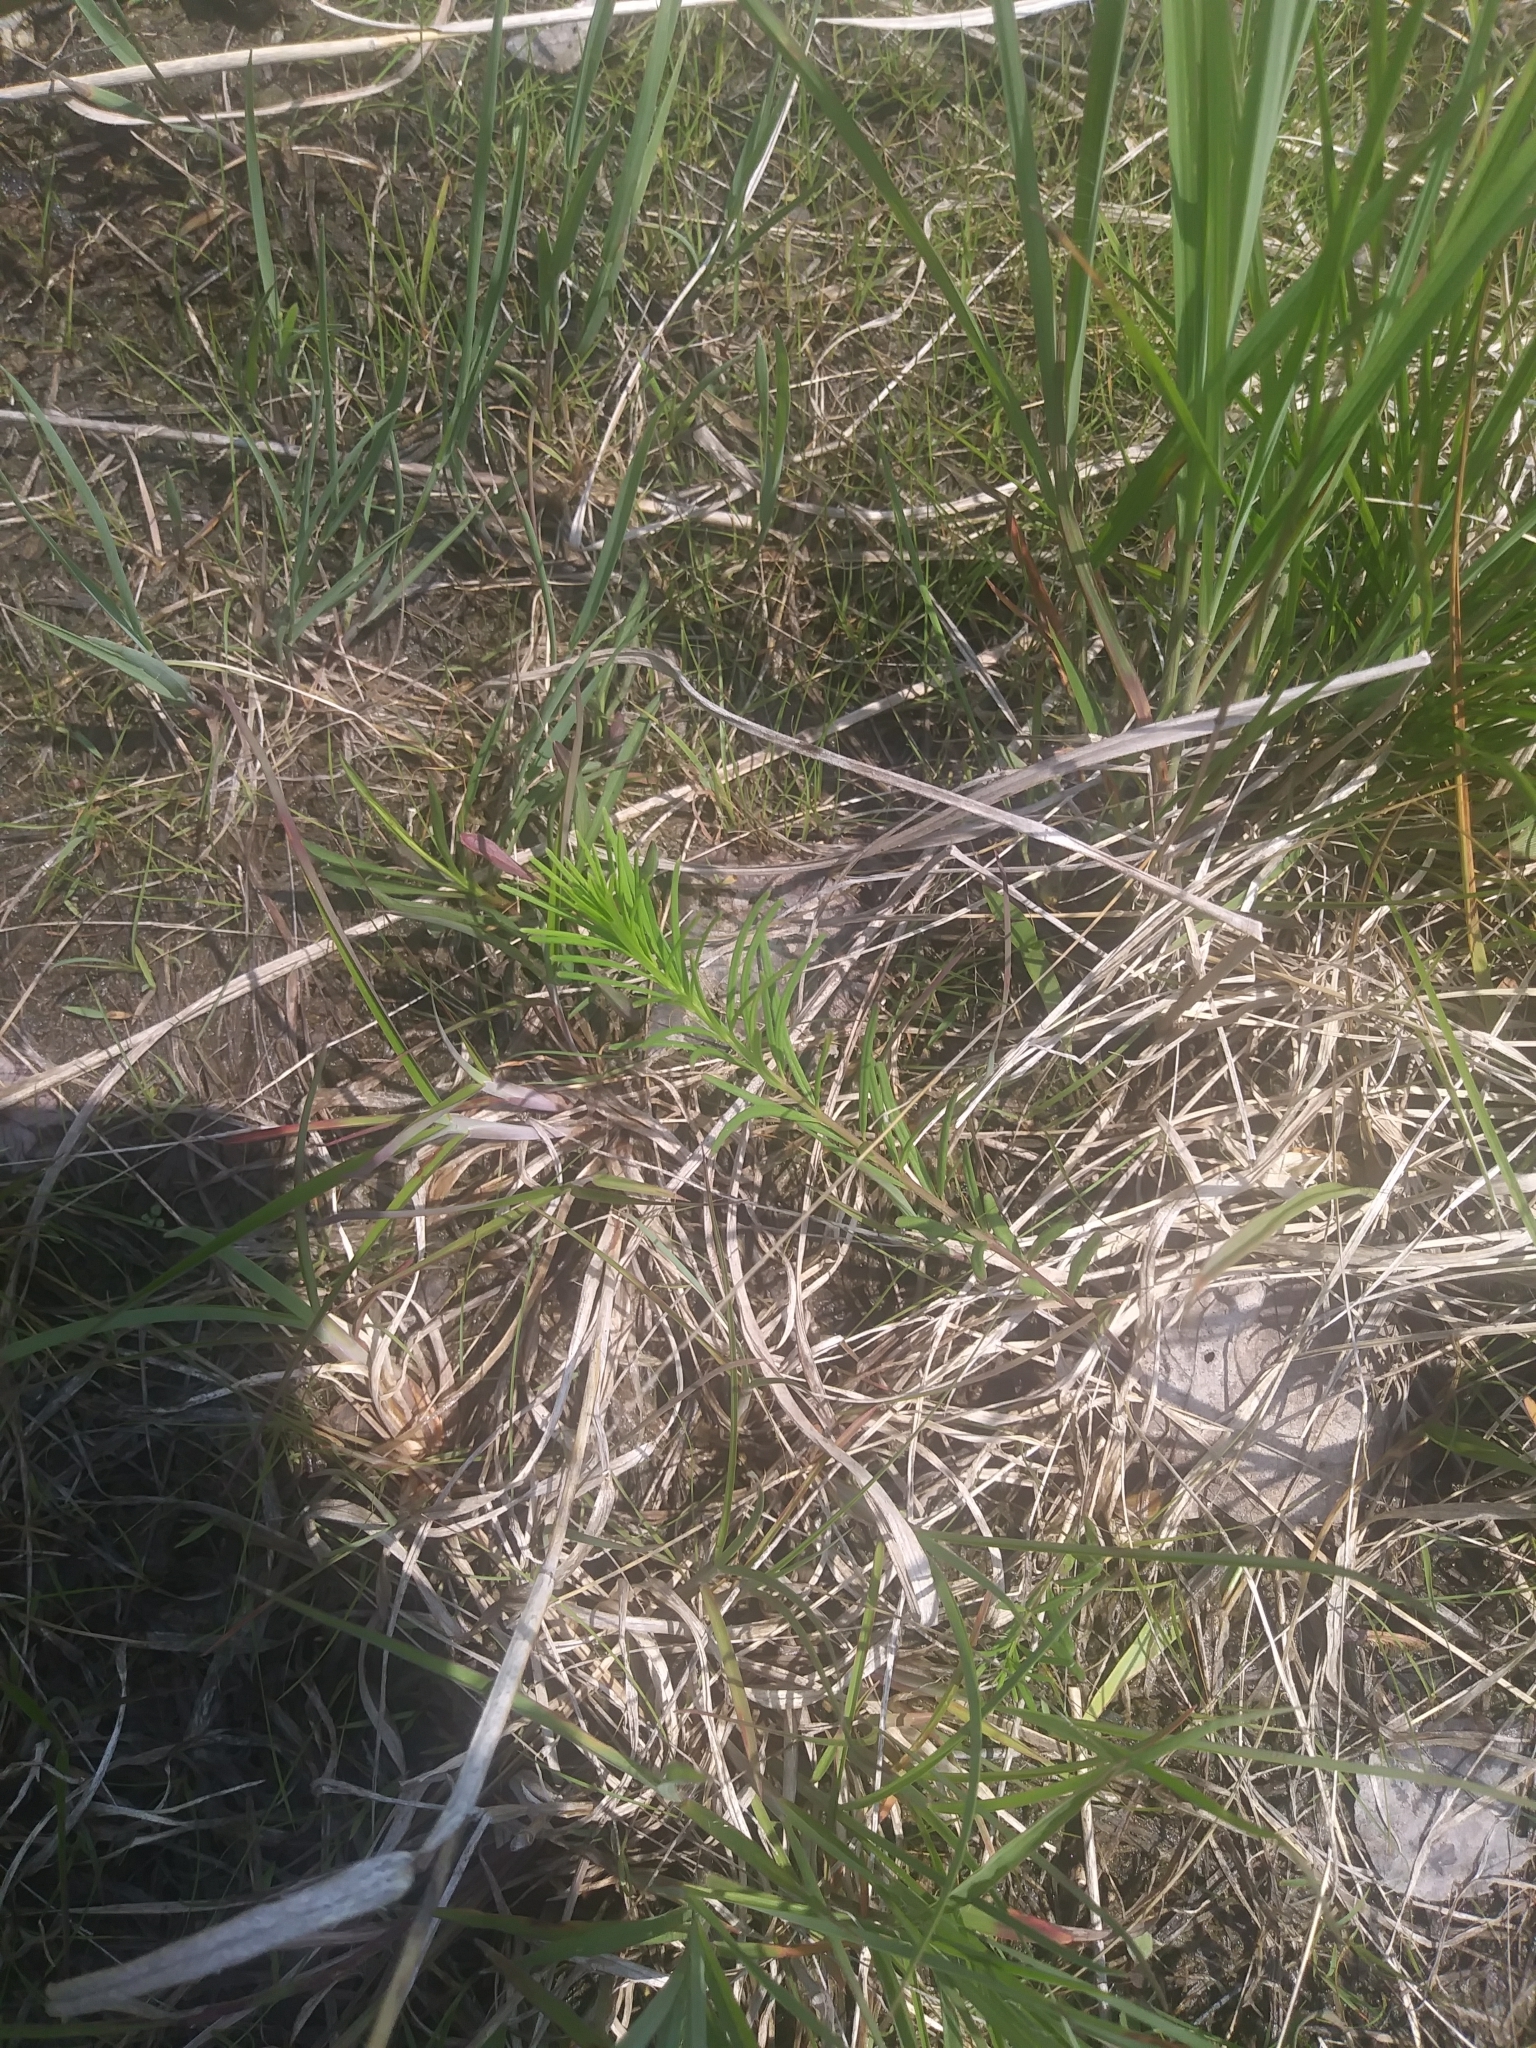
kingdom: Plantae
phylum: Tracheophyta
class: Magnoliopsida
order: Gentianales
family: Apocynaceae
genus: Asclepias
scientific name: Asclepias verticillata
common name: Eastern whorled milkweed
